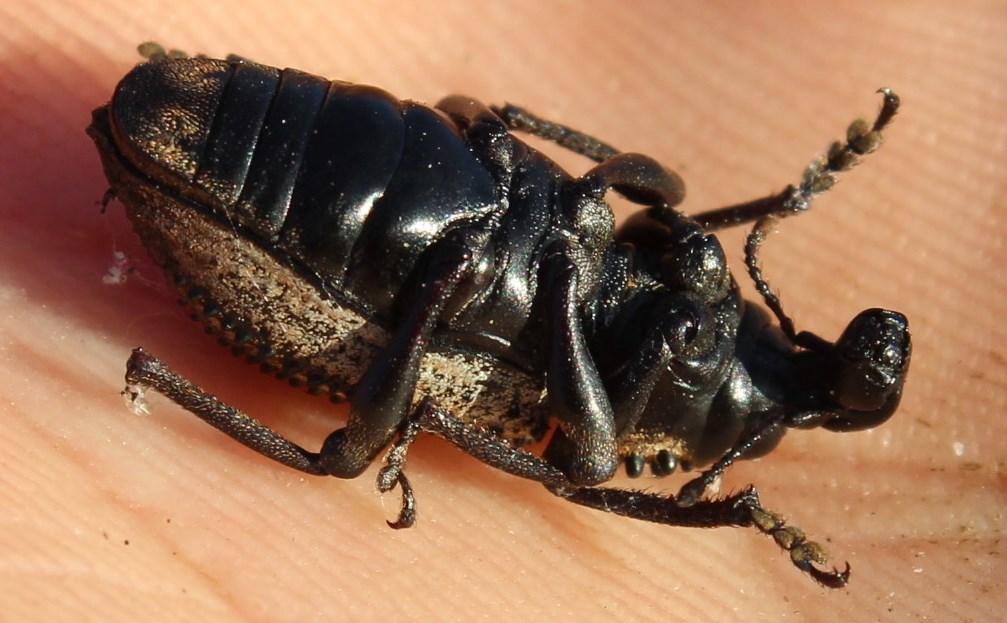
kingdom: Animalia
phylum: Arthropoda
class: Insecta
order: Coleoptera
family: Curculionidae
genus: Bronchus
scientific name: Bronchus
